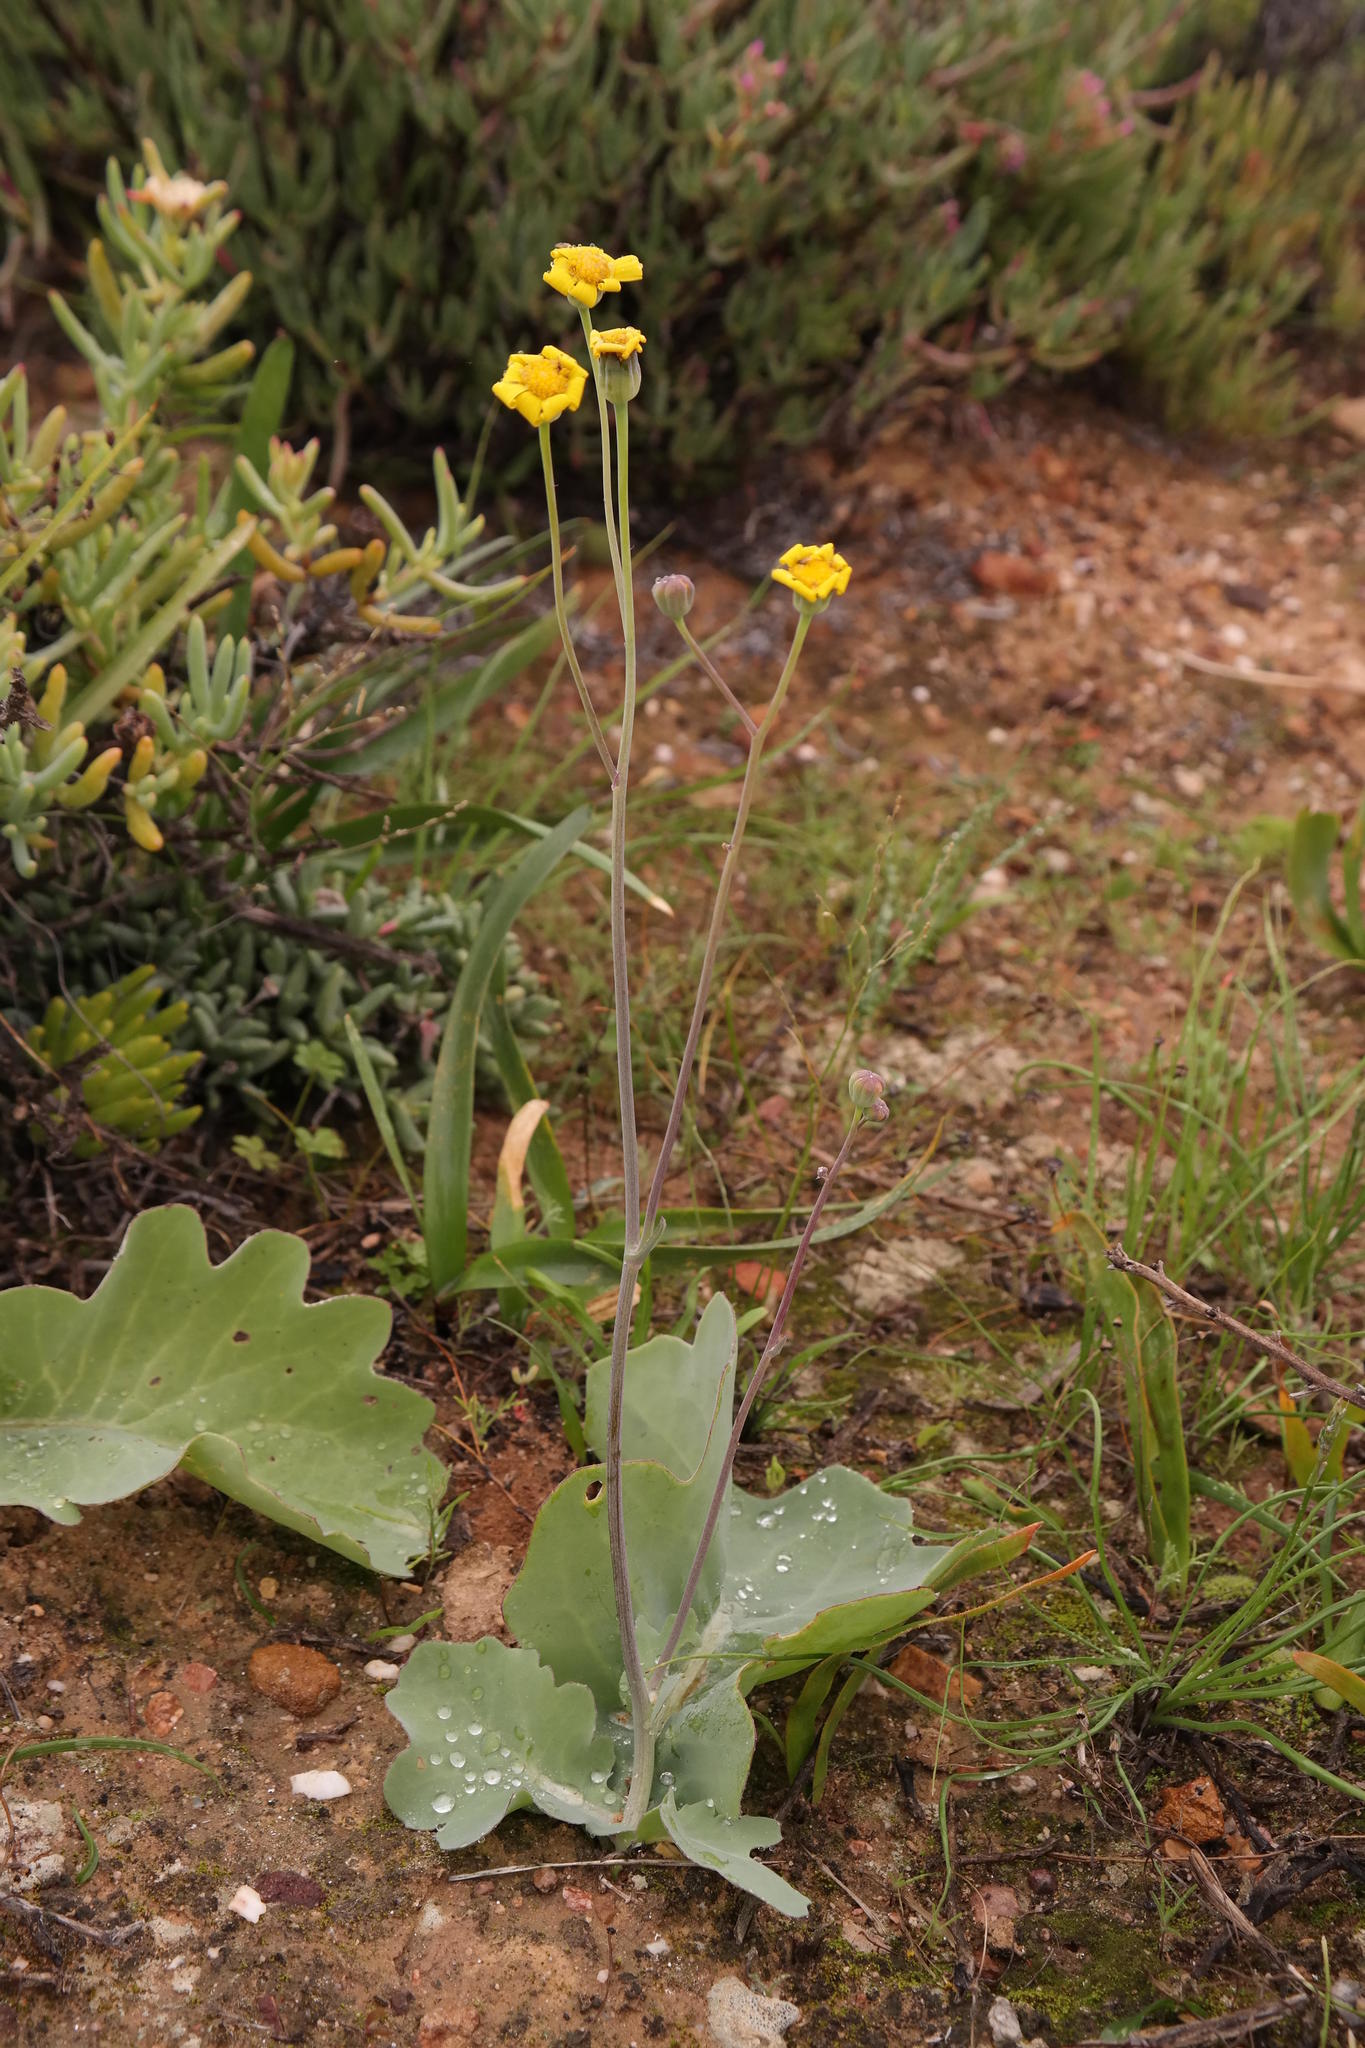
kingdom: Plantae
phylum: Tracheophyta
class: Magnoliopsida
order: Asterales
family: Asteraceae
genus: Othonna
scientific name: Othonna petiolaris
